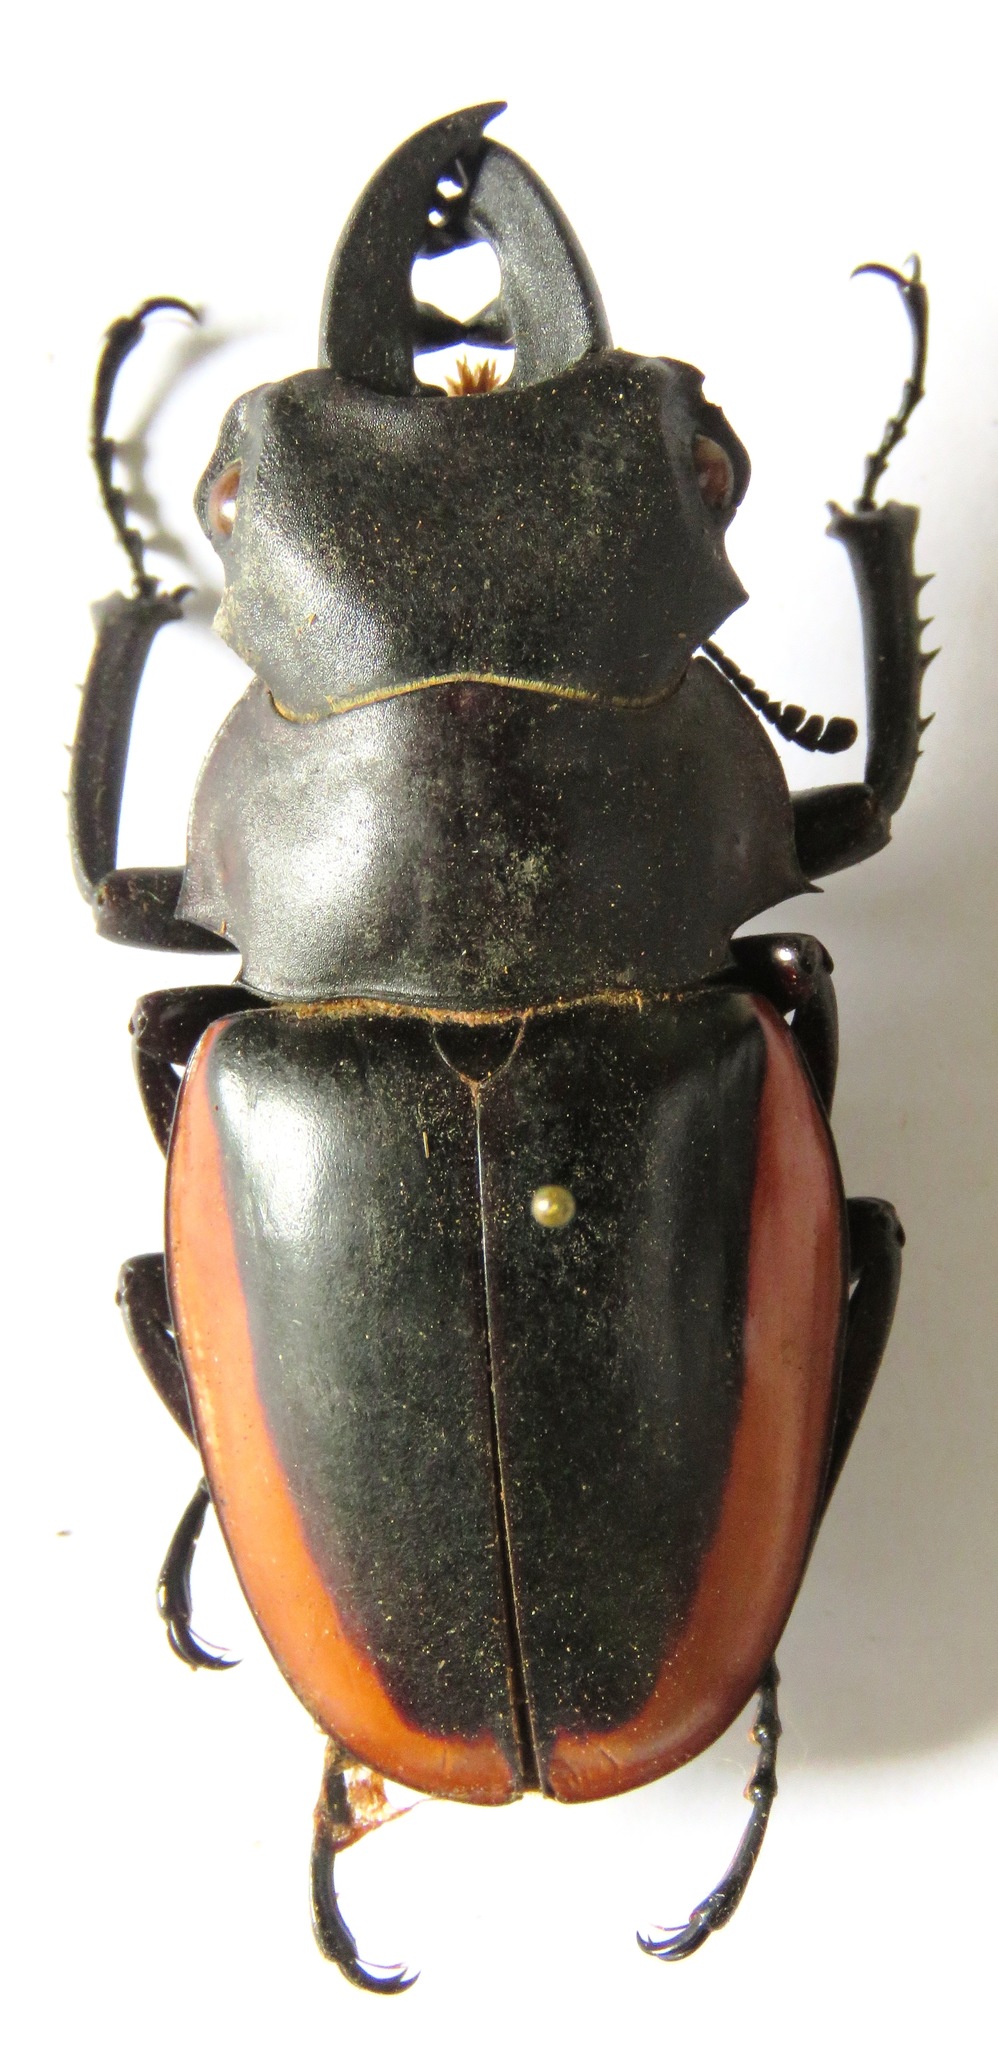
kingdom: Animalia
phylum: Arthropoda
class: Insecta
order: Coleoptera
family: Lucanidae
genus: Odontolabis
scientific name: Odontolabis cuvera
